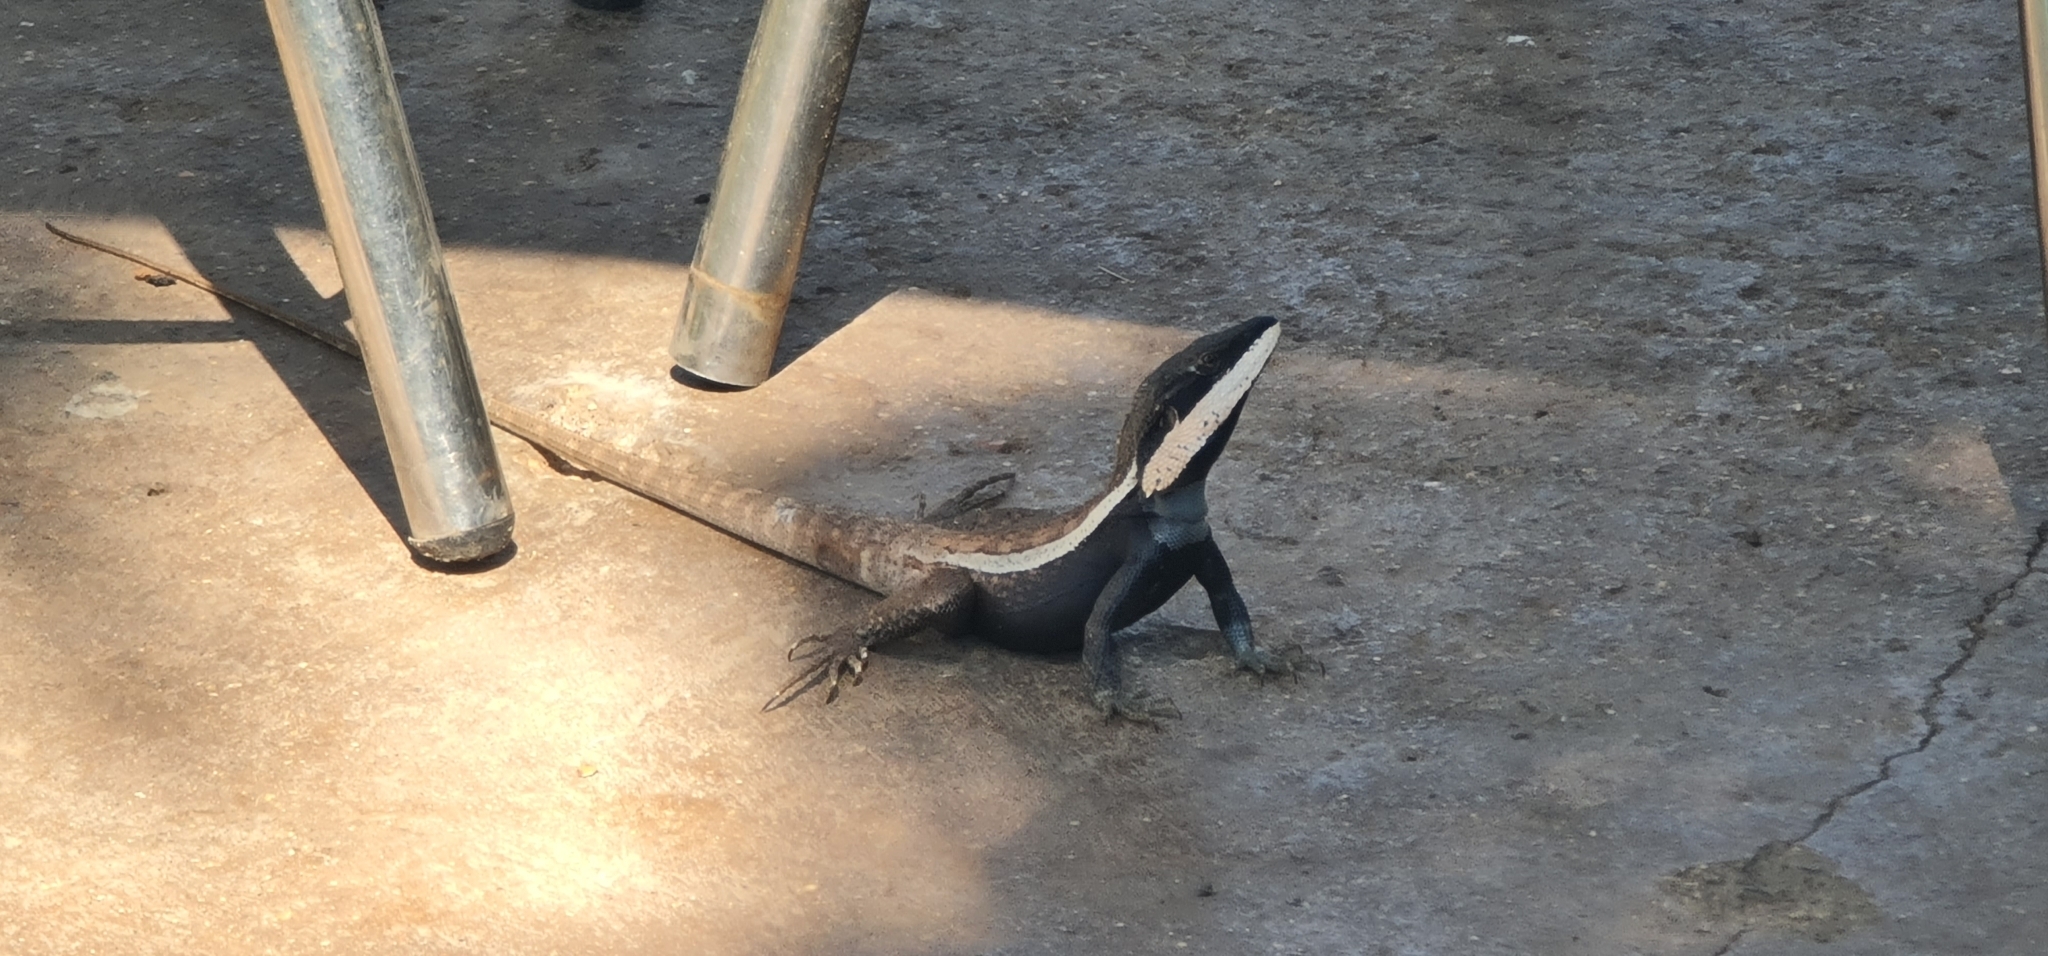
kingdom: Animalia
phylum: Chordata
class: Squamata
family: Agamidae
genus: Lophognathus
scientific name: Lophognathus horneri
